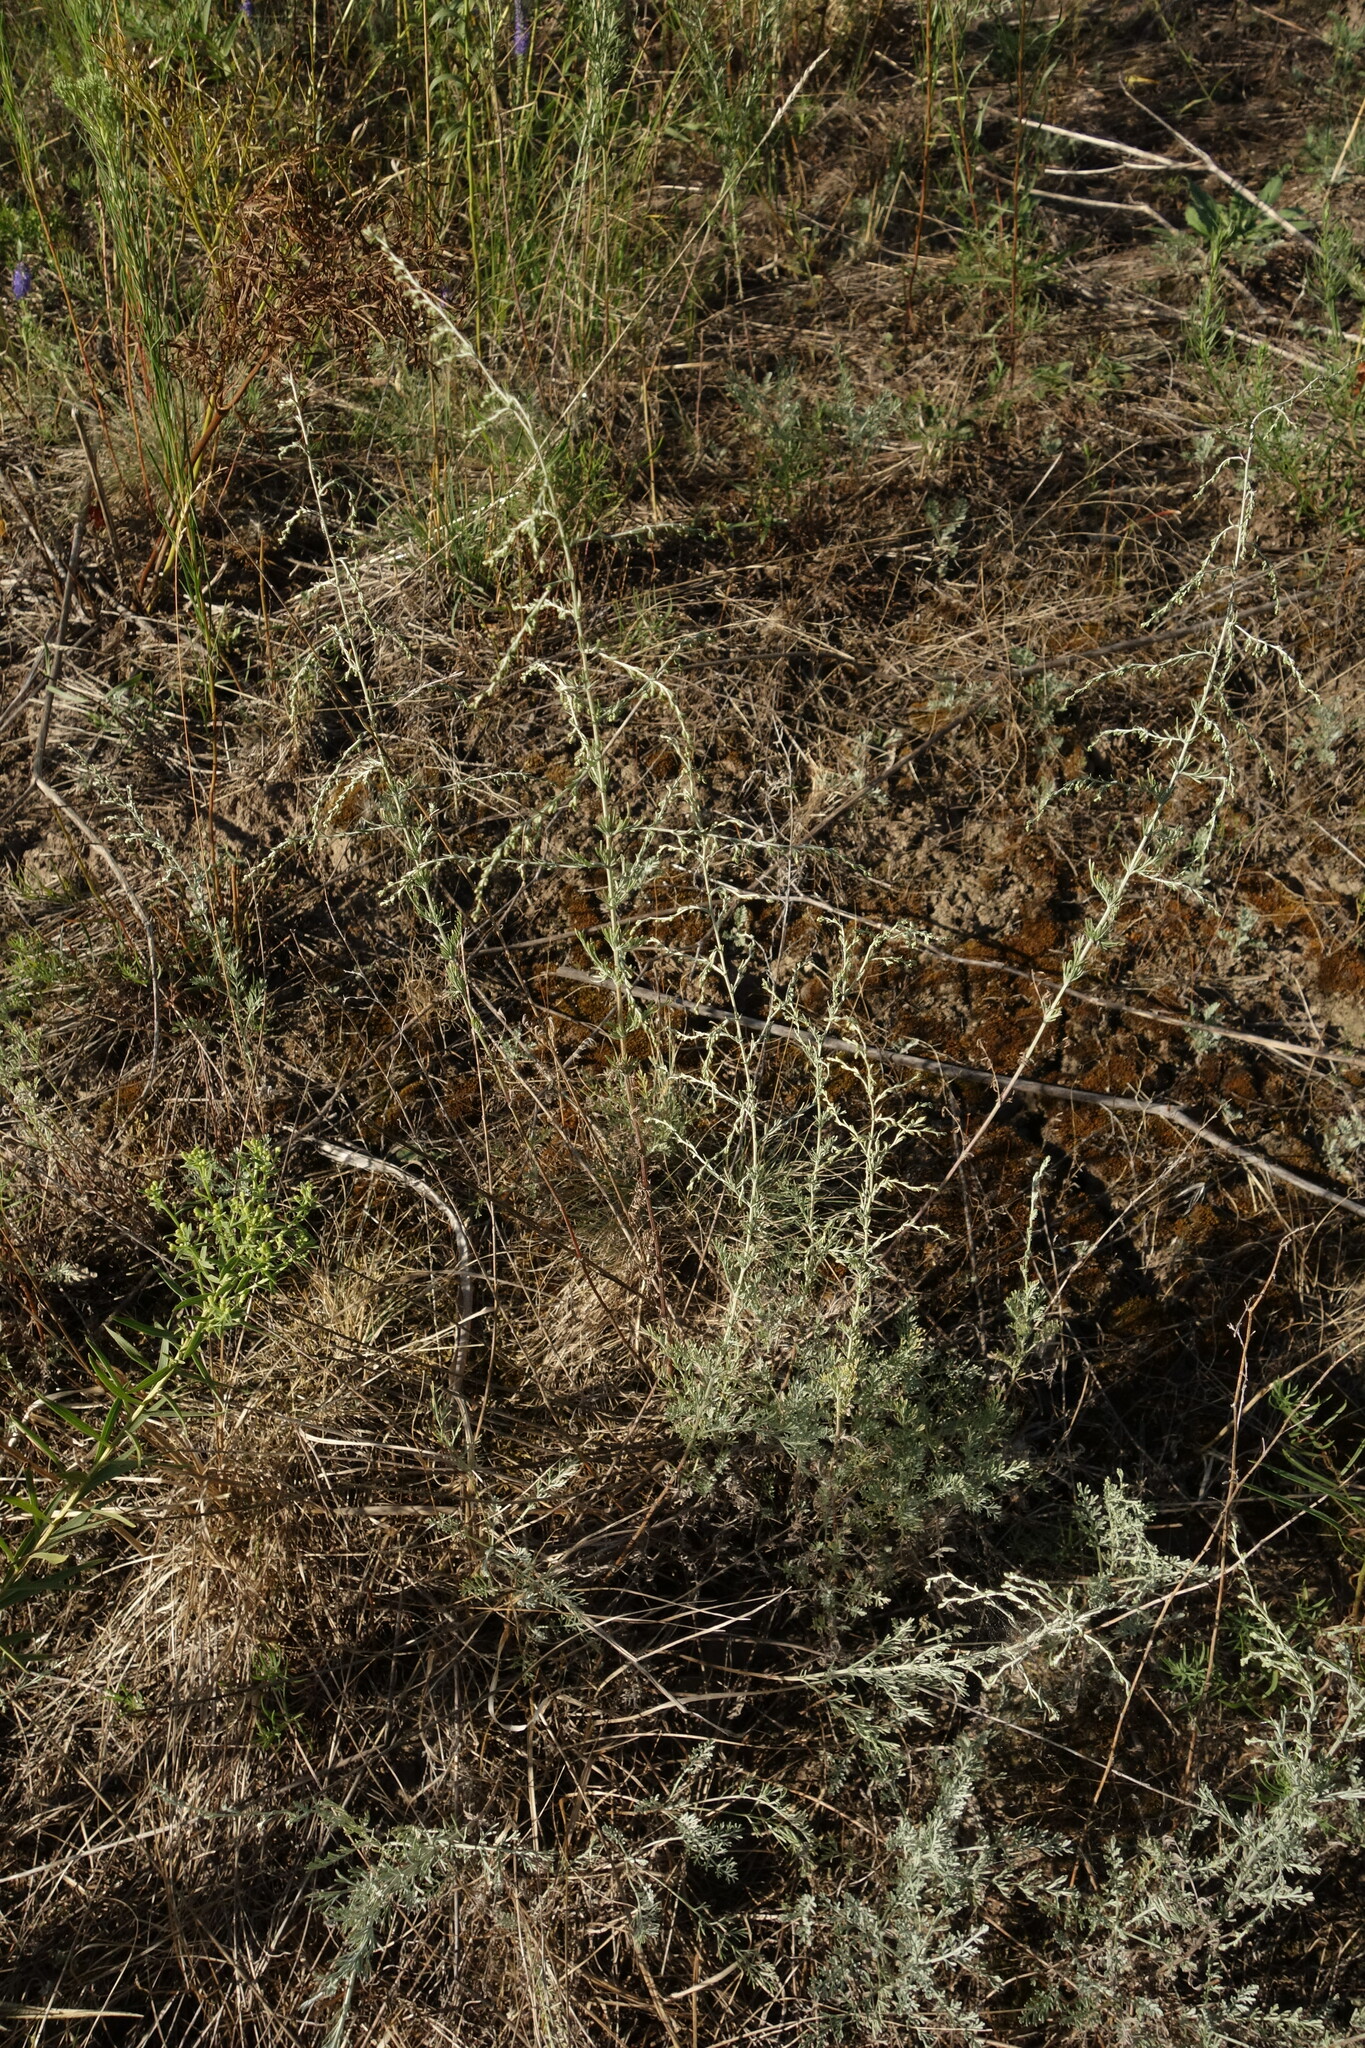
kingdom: Plantae
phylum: Tracheophyta
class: Magnoliopsida
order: Asterales
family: Asteraceae
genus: Artemisia
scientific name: Artemisia santonicum
